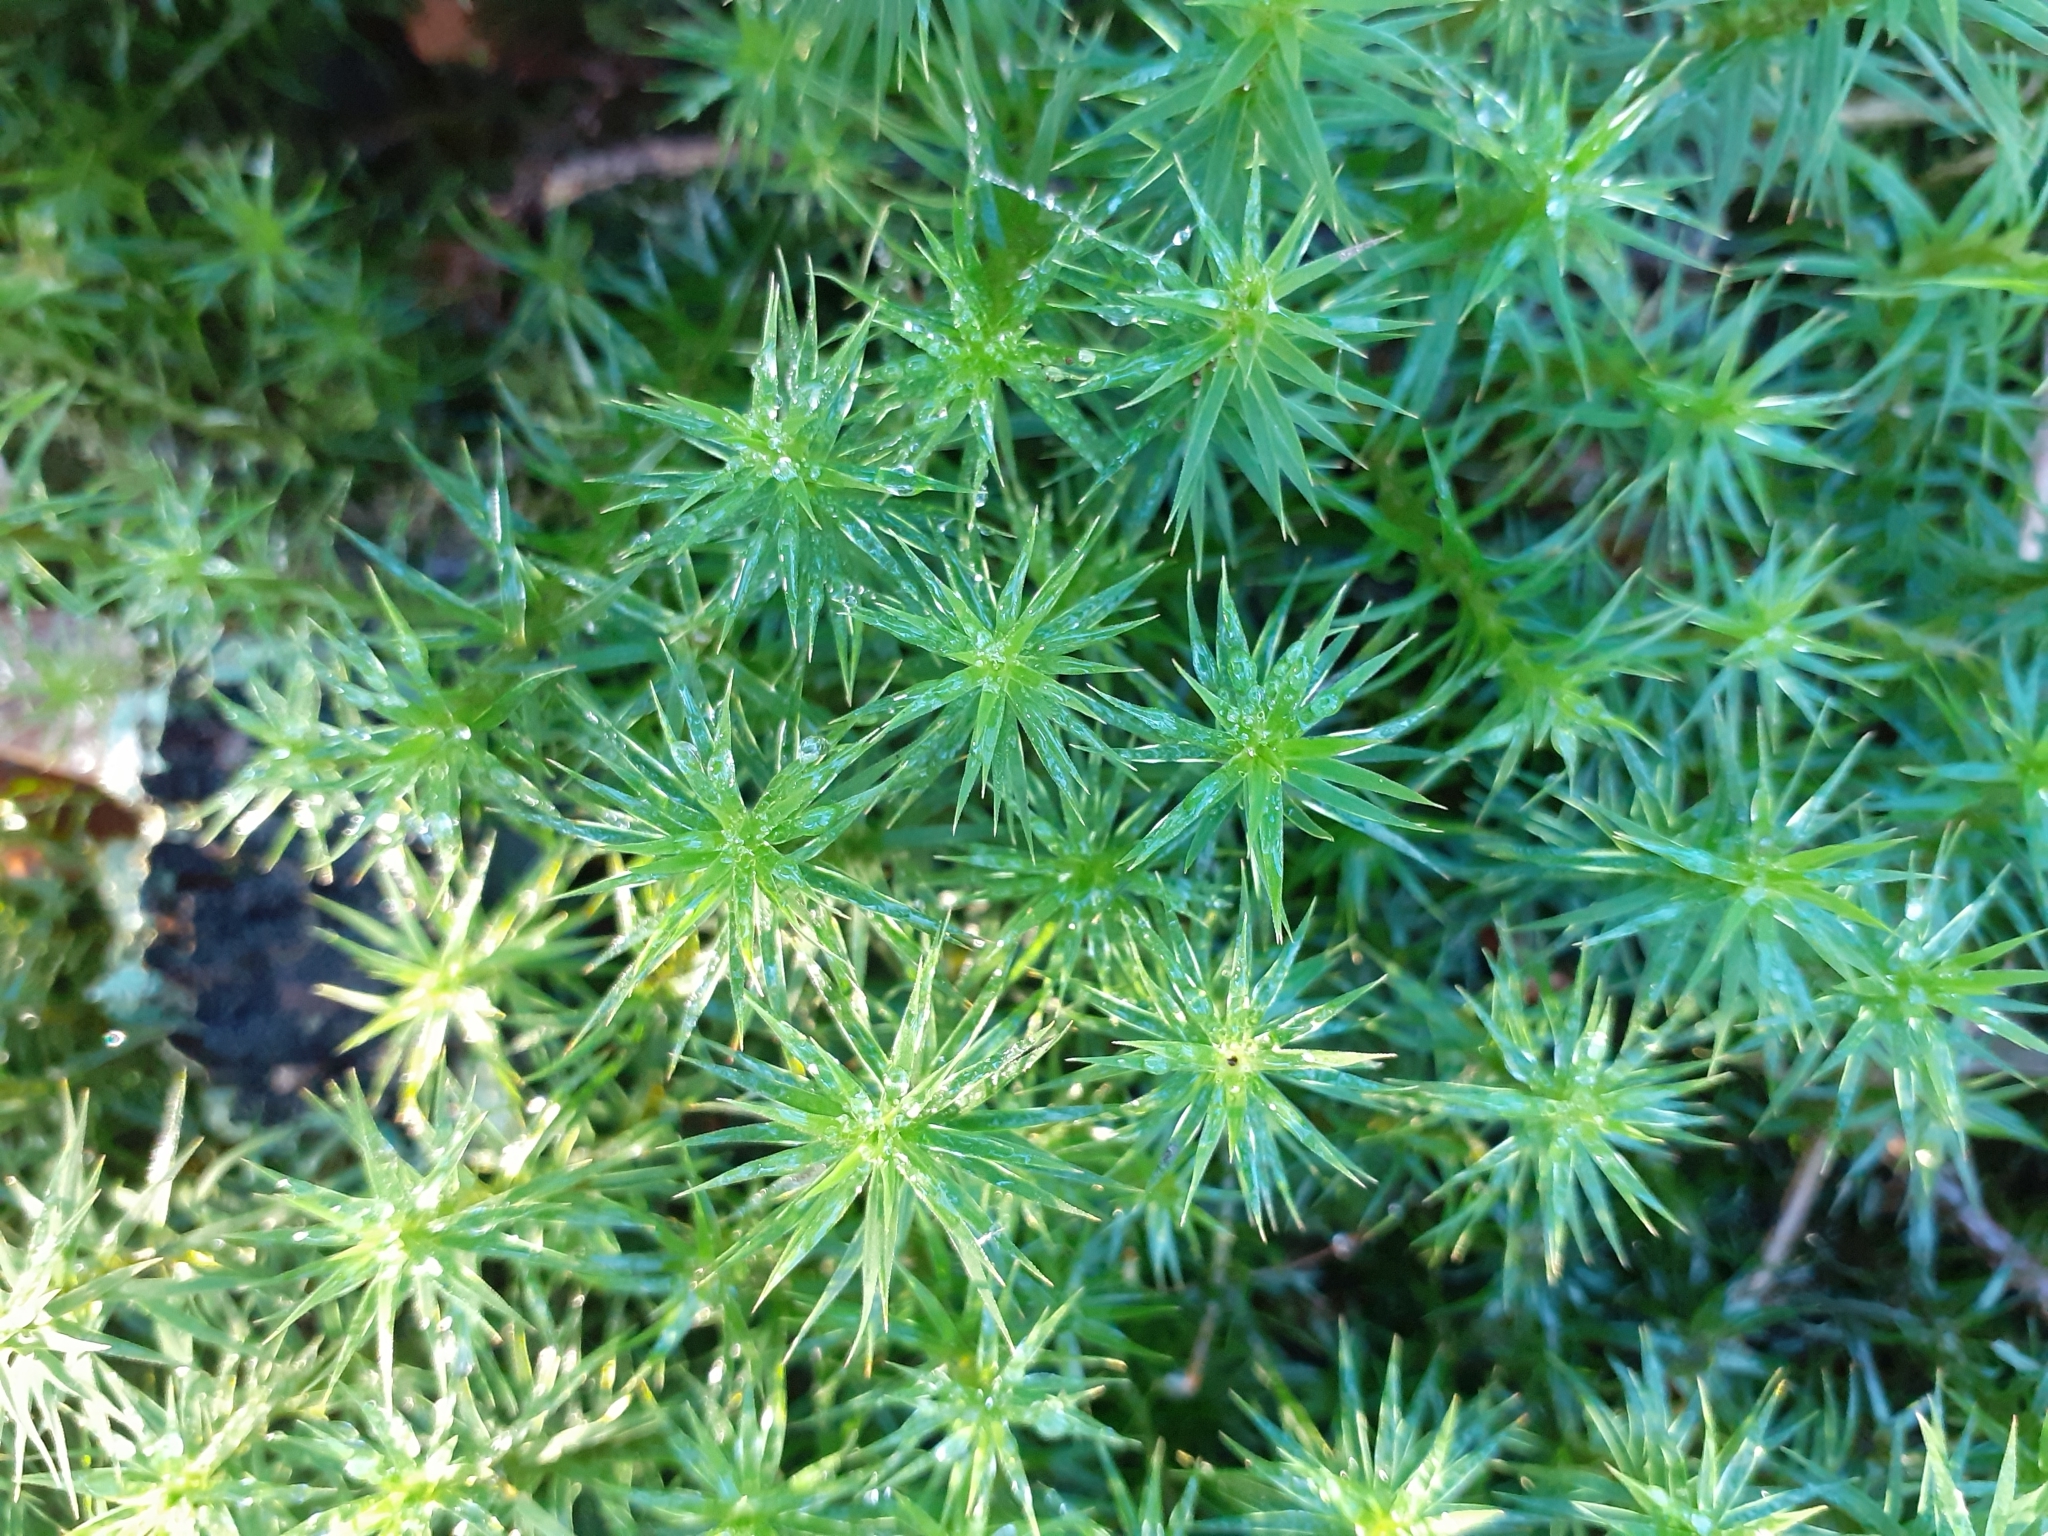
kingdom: Plantae
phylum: Bryophyta
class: Polytrichopsida
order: Polytrichales
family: Polytrichaceae
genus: Polytrichum
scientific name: Polytrichum formosum
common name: Bank haircap moss
